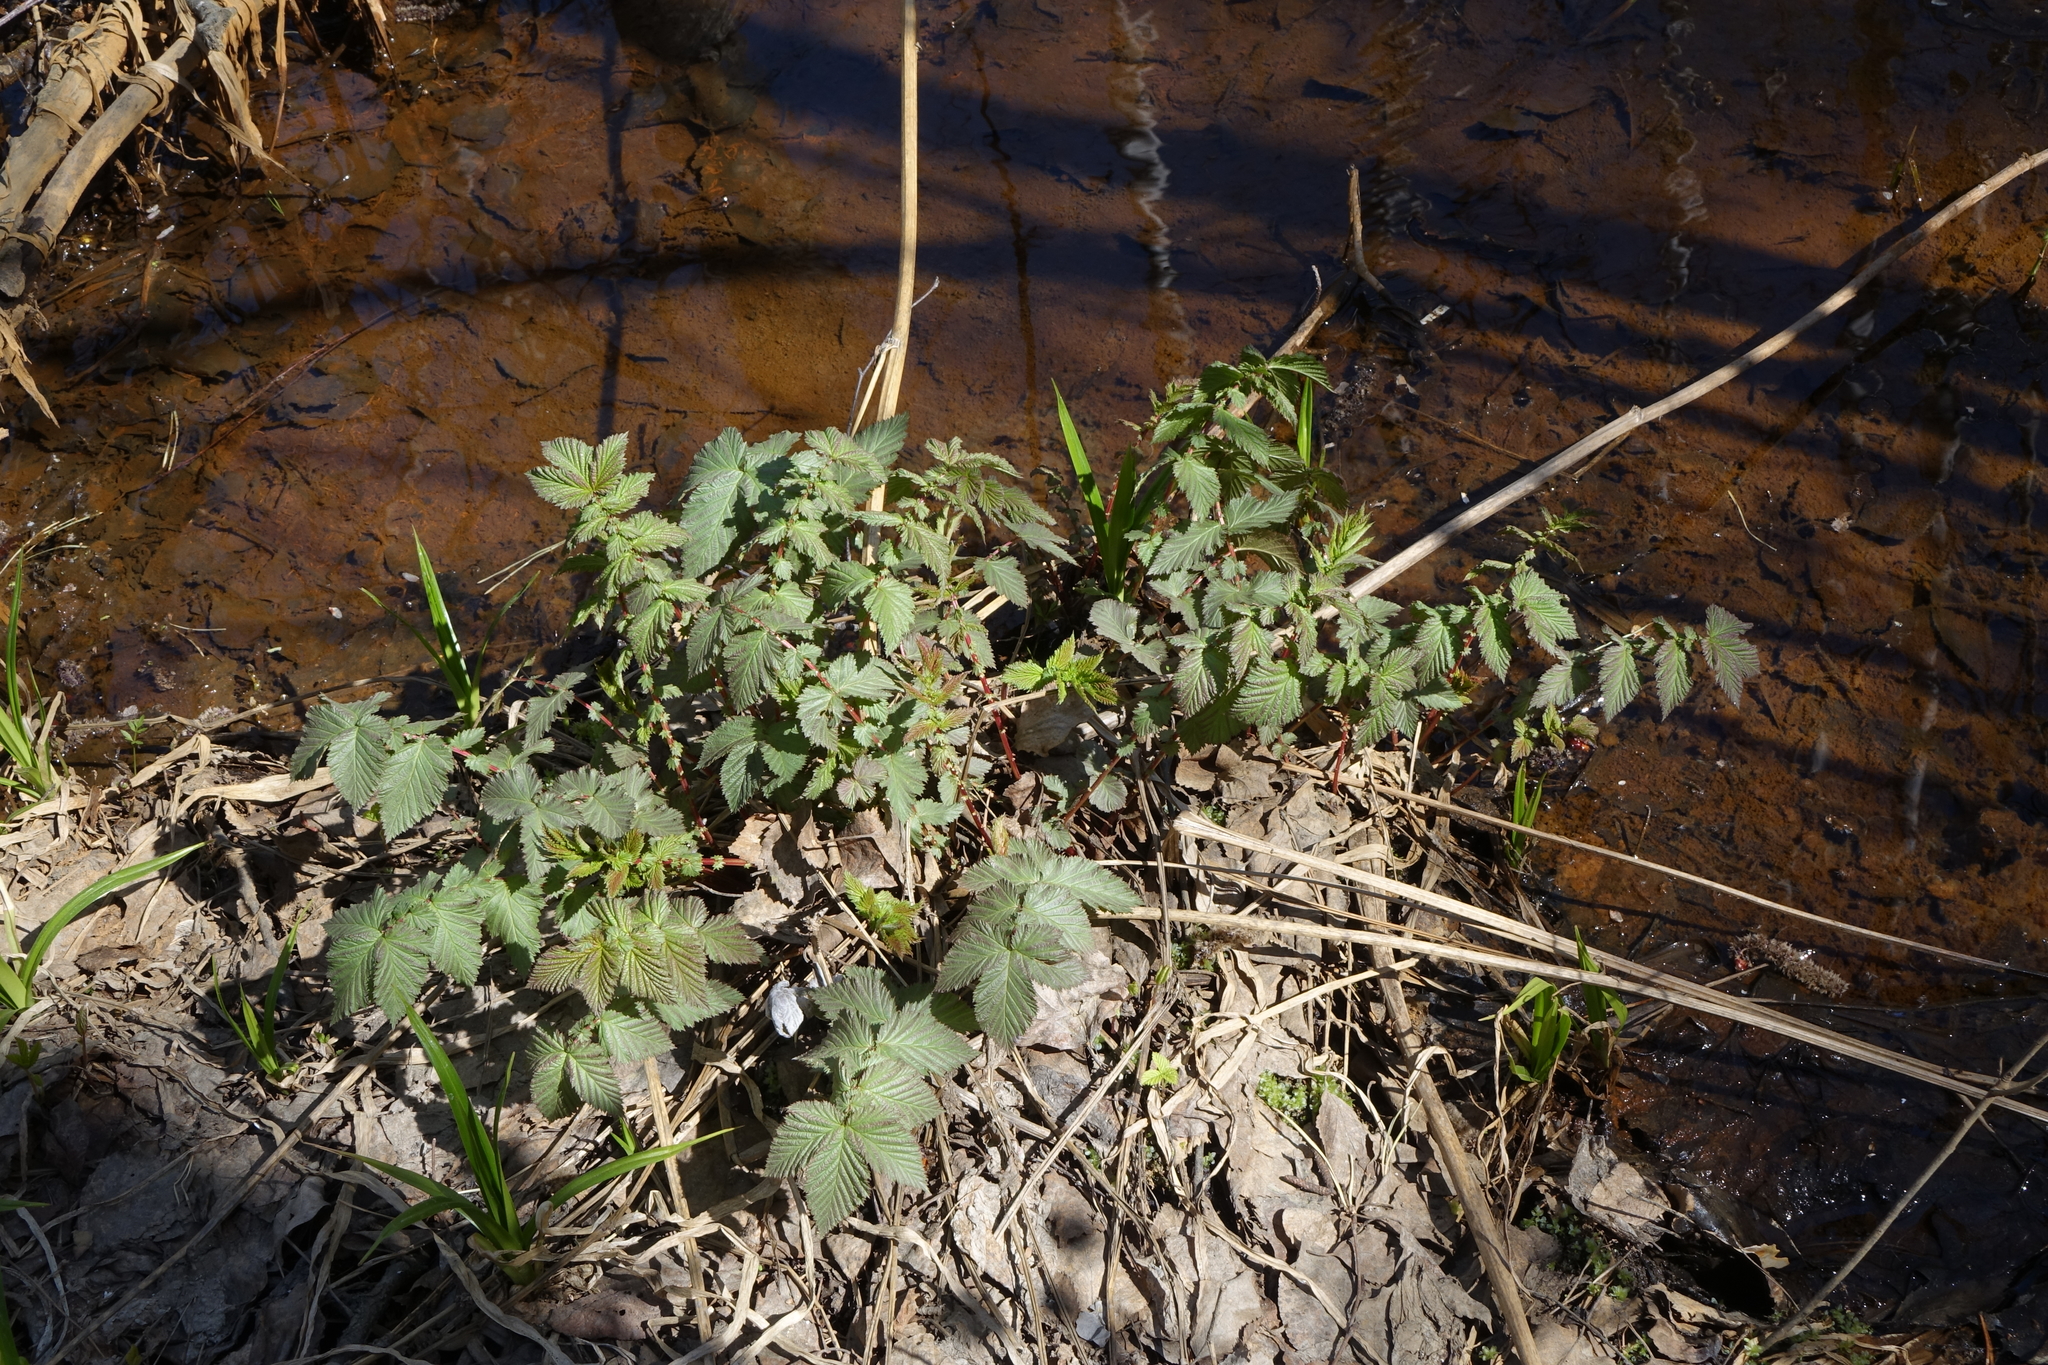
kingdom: Plantae
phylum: Tracheophyta
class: Magnoliopsida
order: Rosales
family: Rosaceae
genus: Filipendula
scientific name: Filipendula ulmaria
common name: Meadowsweet
